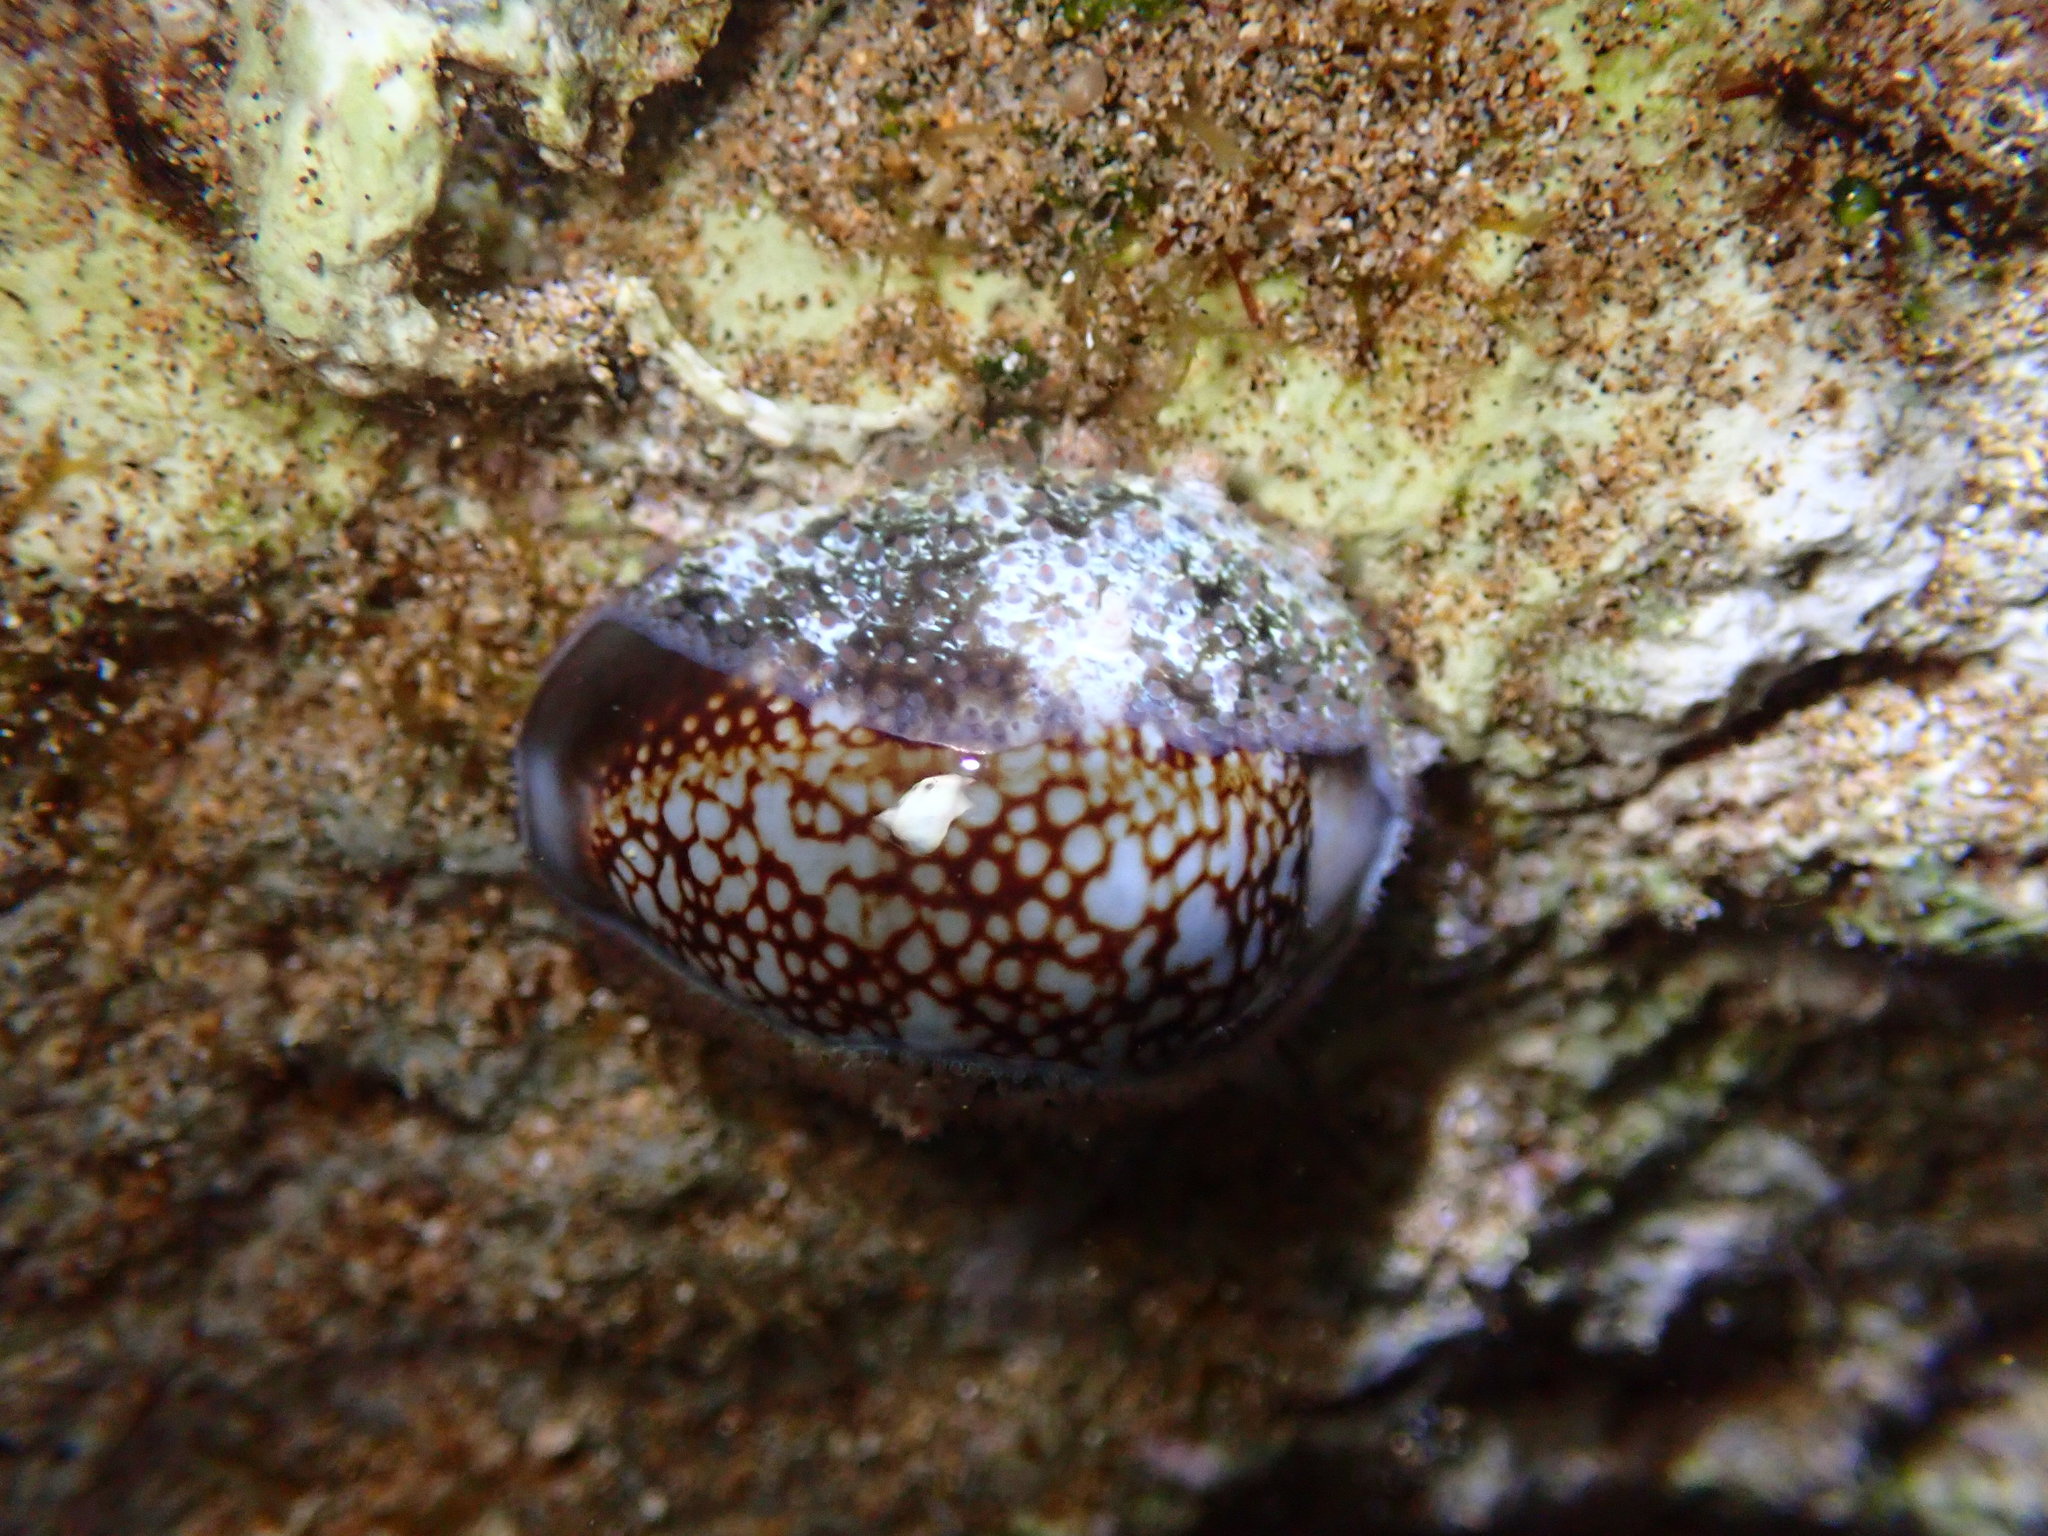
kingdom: Animalia
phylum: Mollusca
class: Gastropoda
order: Littorinimorpha
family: Cypraeidae
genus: Monetaria
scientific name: Monetaria caputophidii
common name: Snake's head cowry
